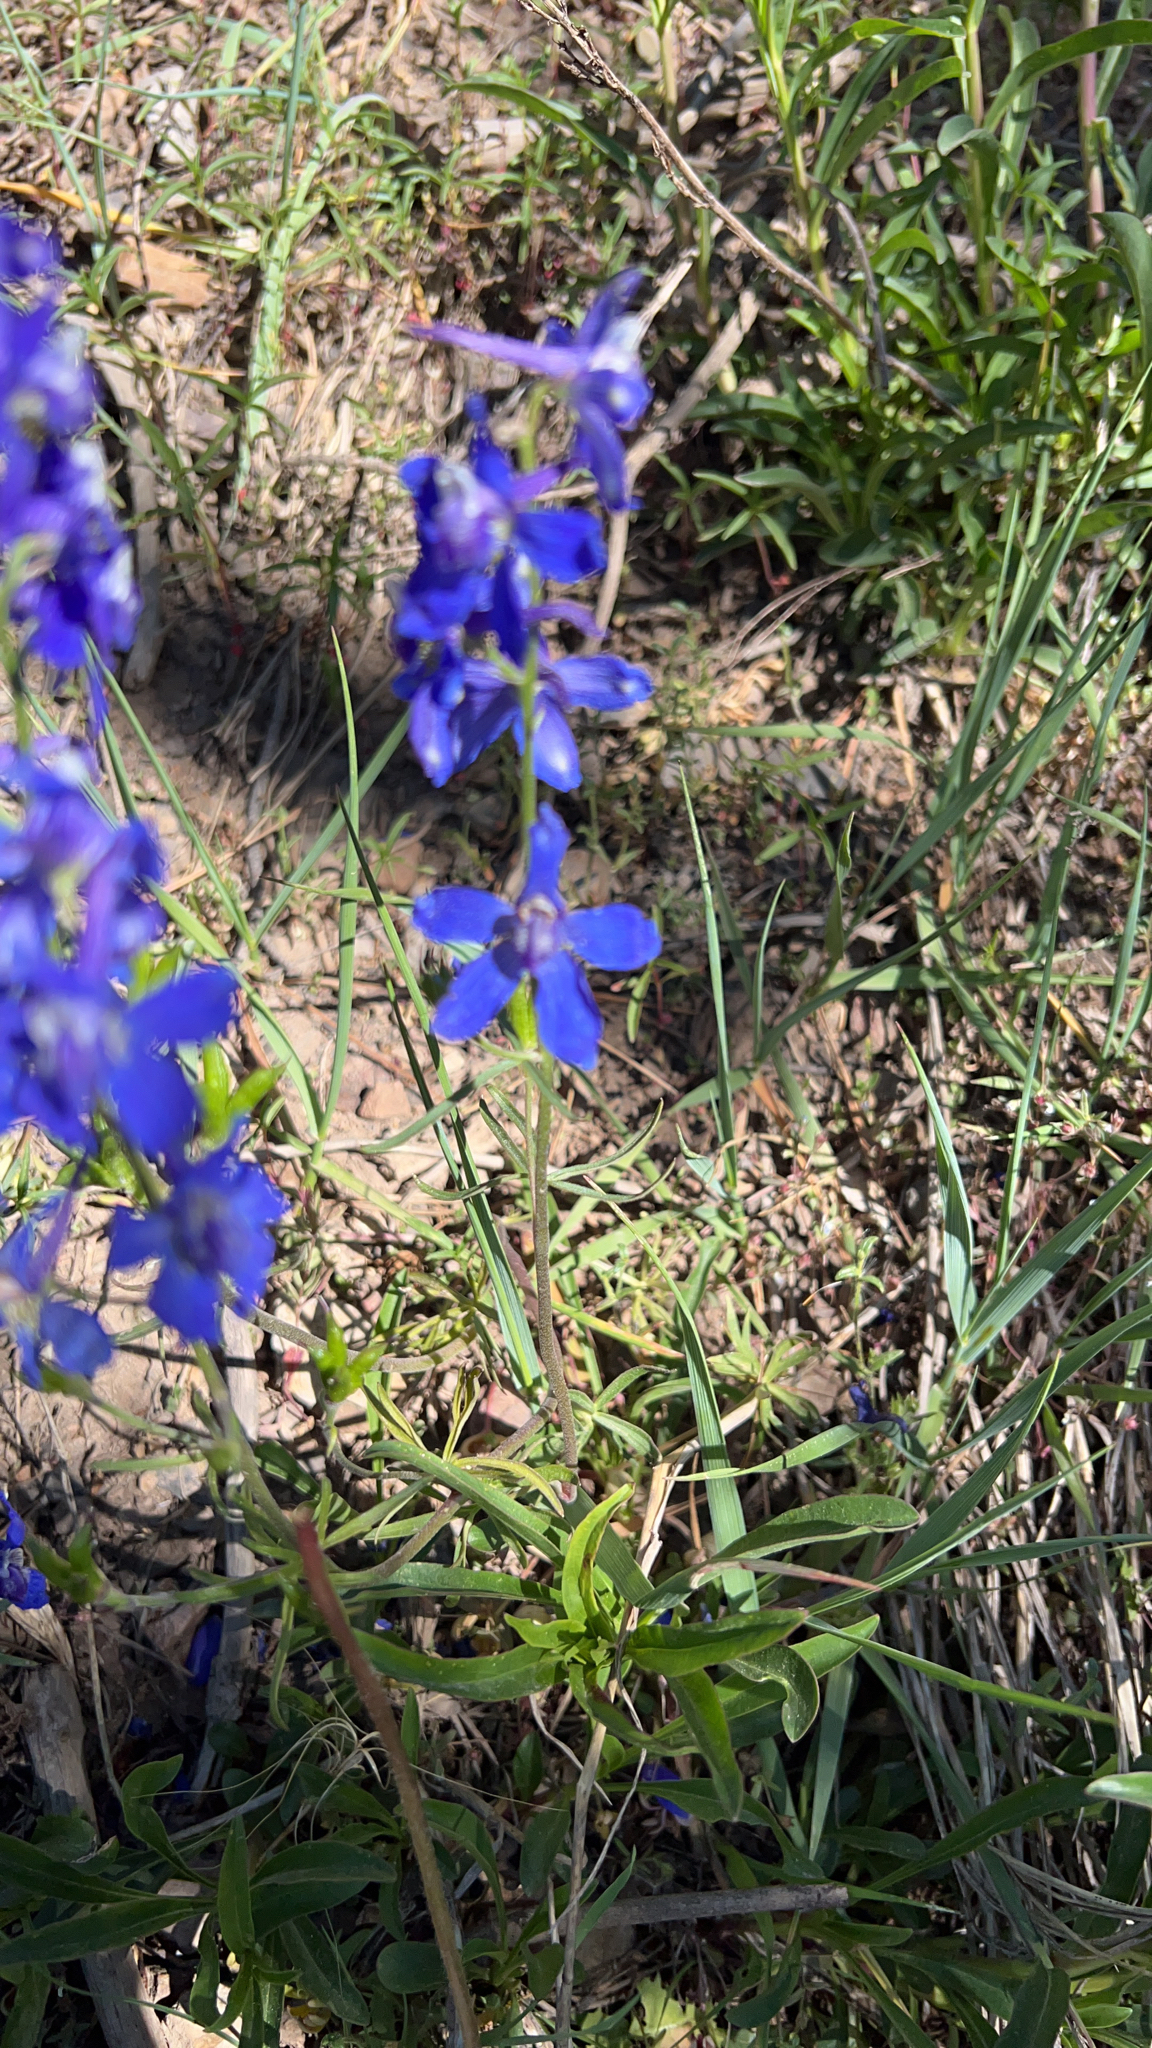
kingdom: Plantae
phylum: Tracheophyta
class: Magnoliopsida
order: Ranunculales
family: Ranunculaceae
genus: Delphinium
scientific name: Delphinium nuttallianum
